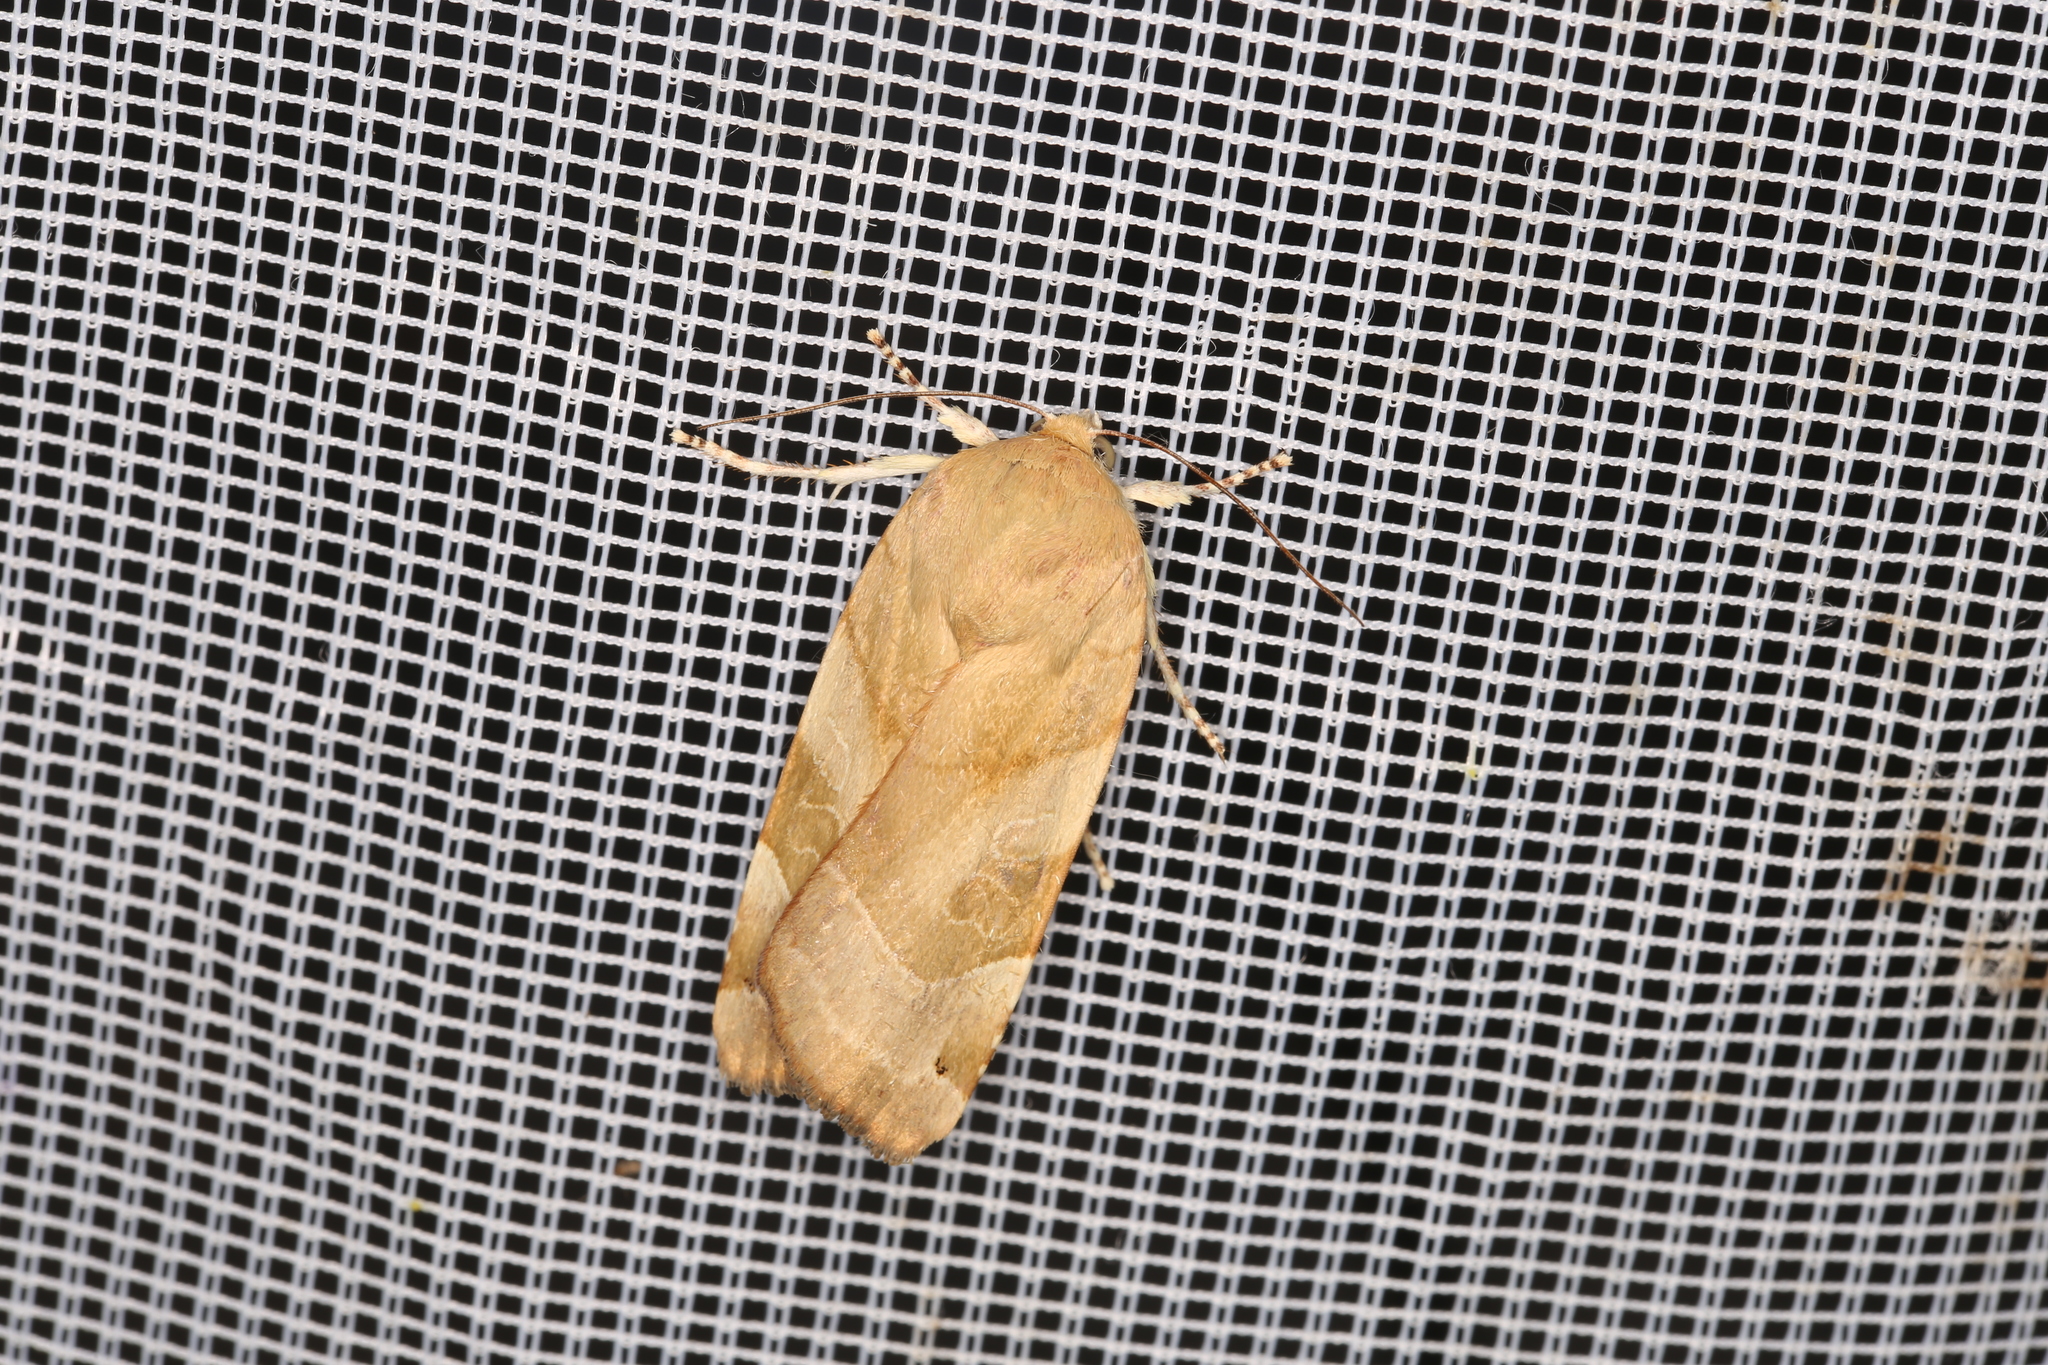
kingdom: Animalia
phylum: Arthropoda
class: Insecta
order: Lepidoptera
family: Noctuidae
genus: Noctua
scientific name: Noctua fimbriata
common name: Broad-bordered yellow underwing
